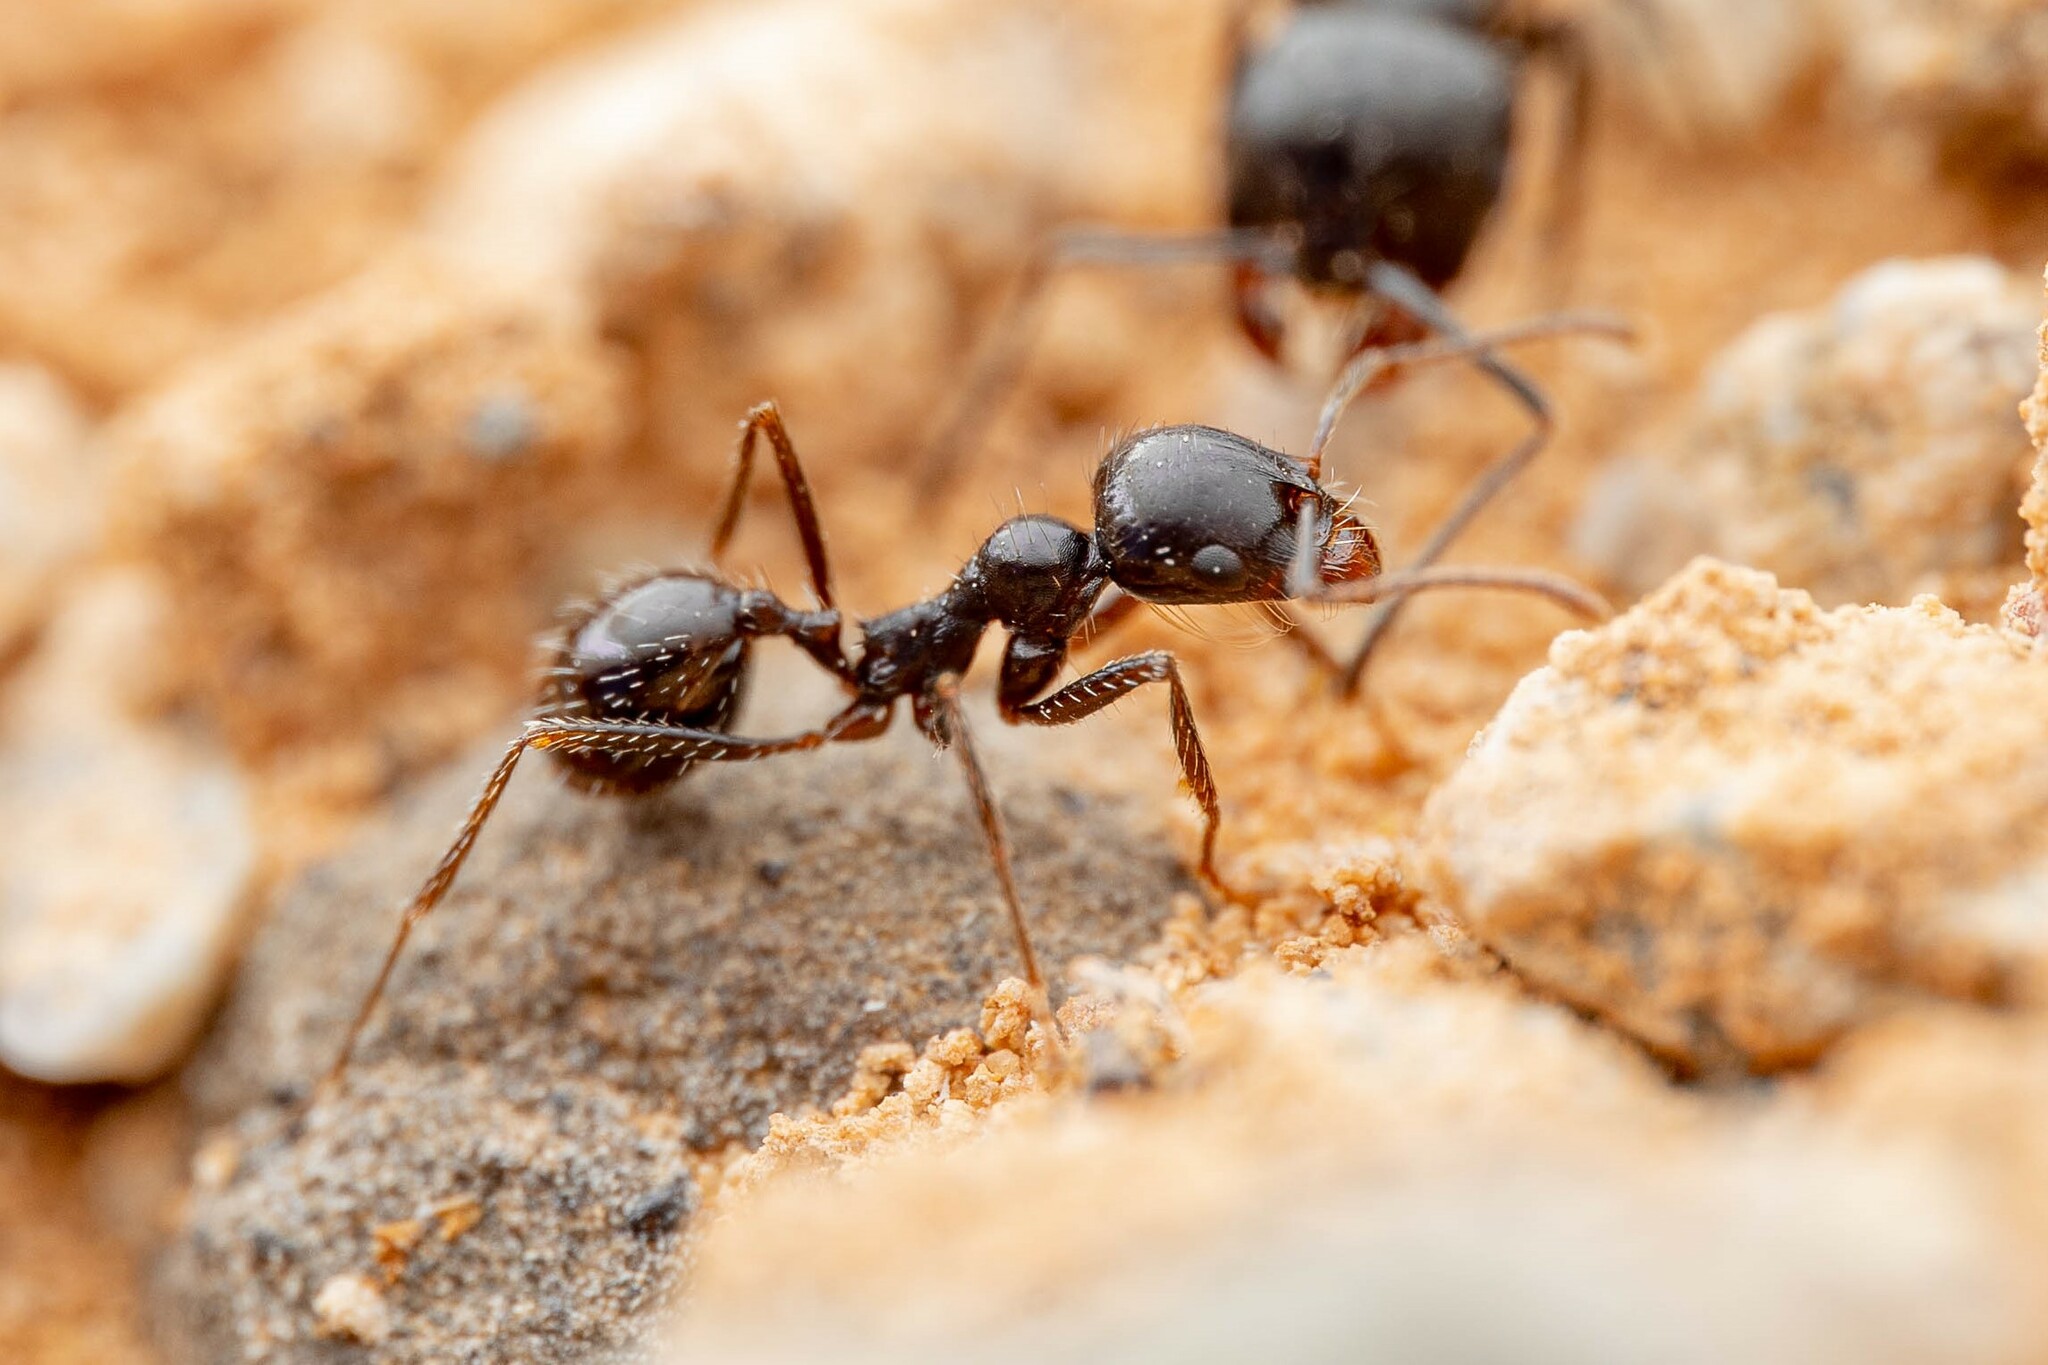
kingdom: Animalia
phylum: Arthropoda
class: Insecta
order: Hymenoptera
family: Formicidae
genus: Messor
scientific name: Messor pergandei
